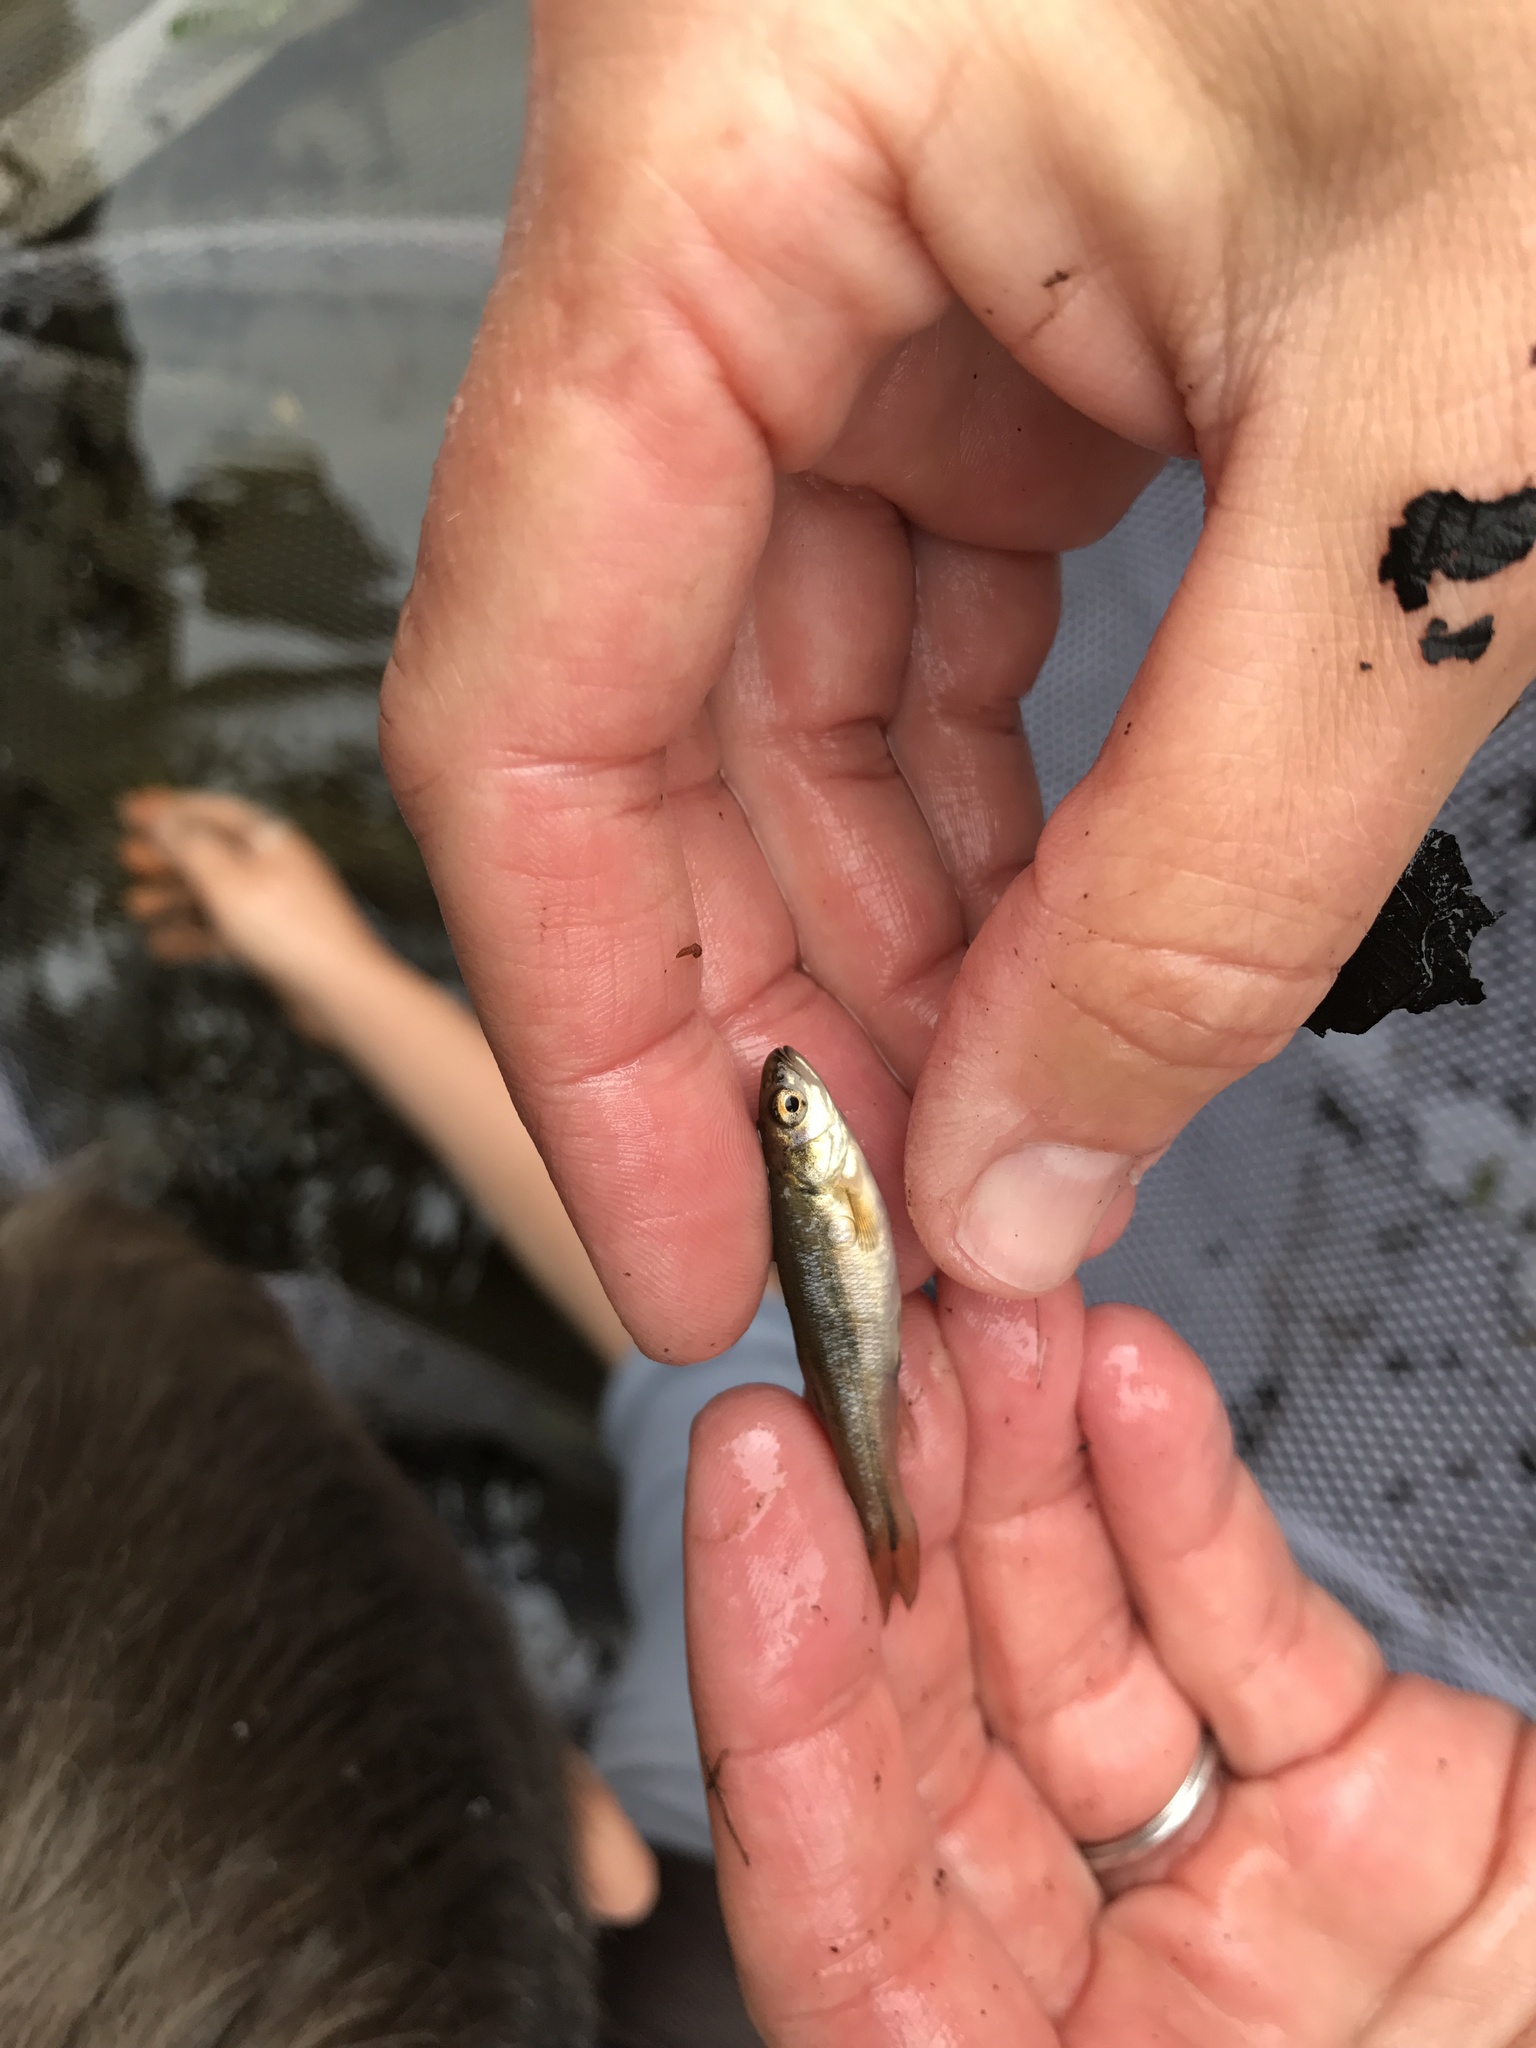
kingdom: Animalia
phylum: Chordata
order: Cypriniformes
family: Cyprinidae
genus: Semotilus
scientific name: Semotilus atromaculatus
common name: Creek chub
